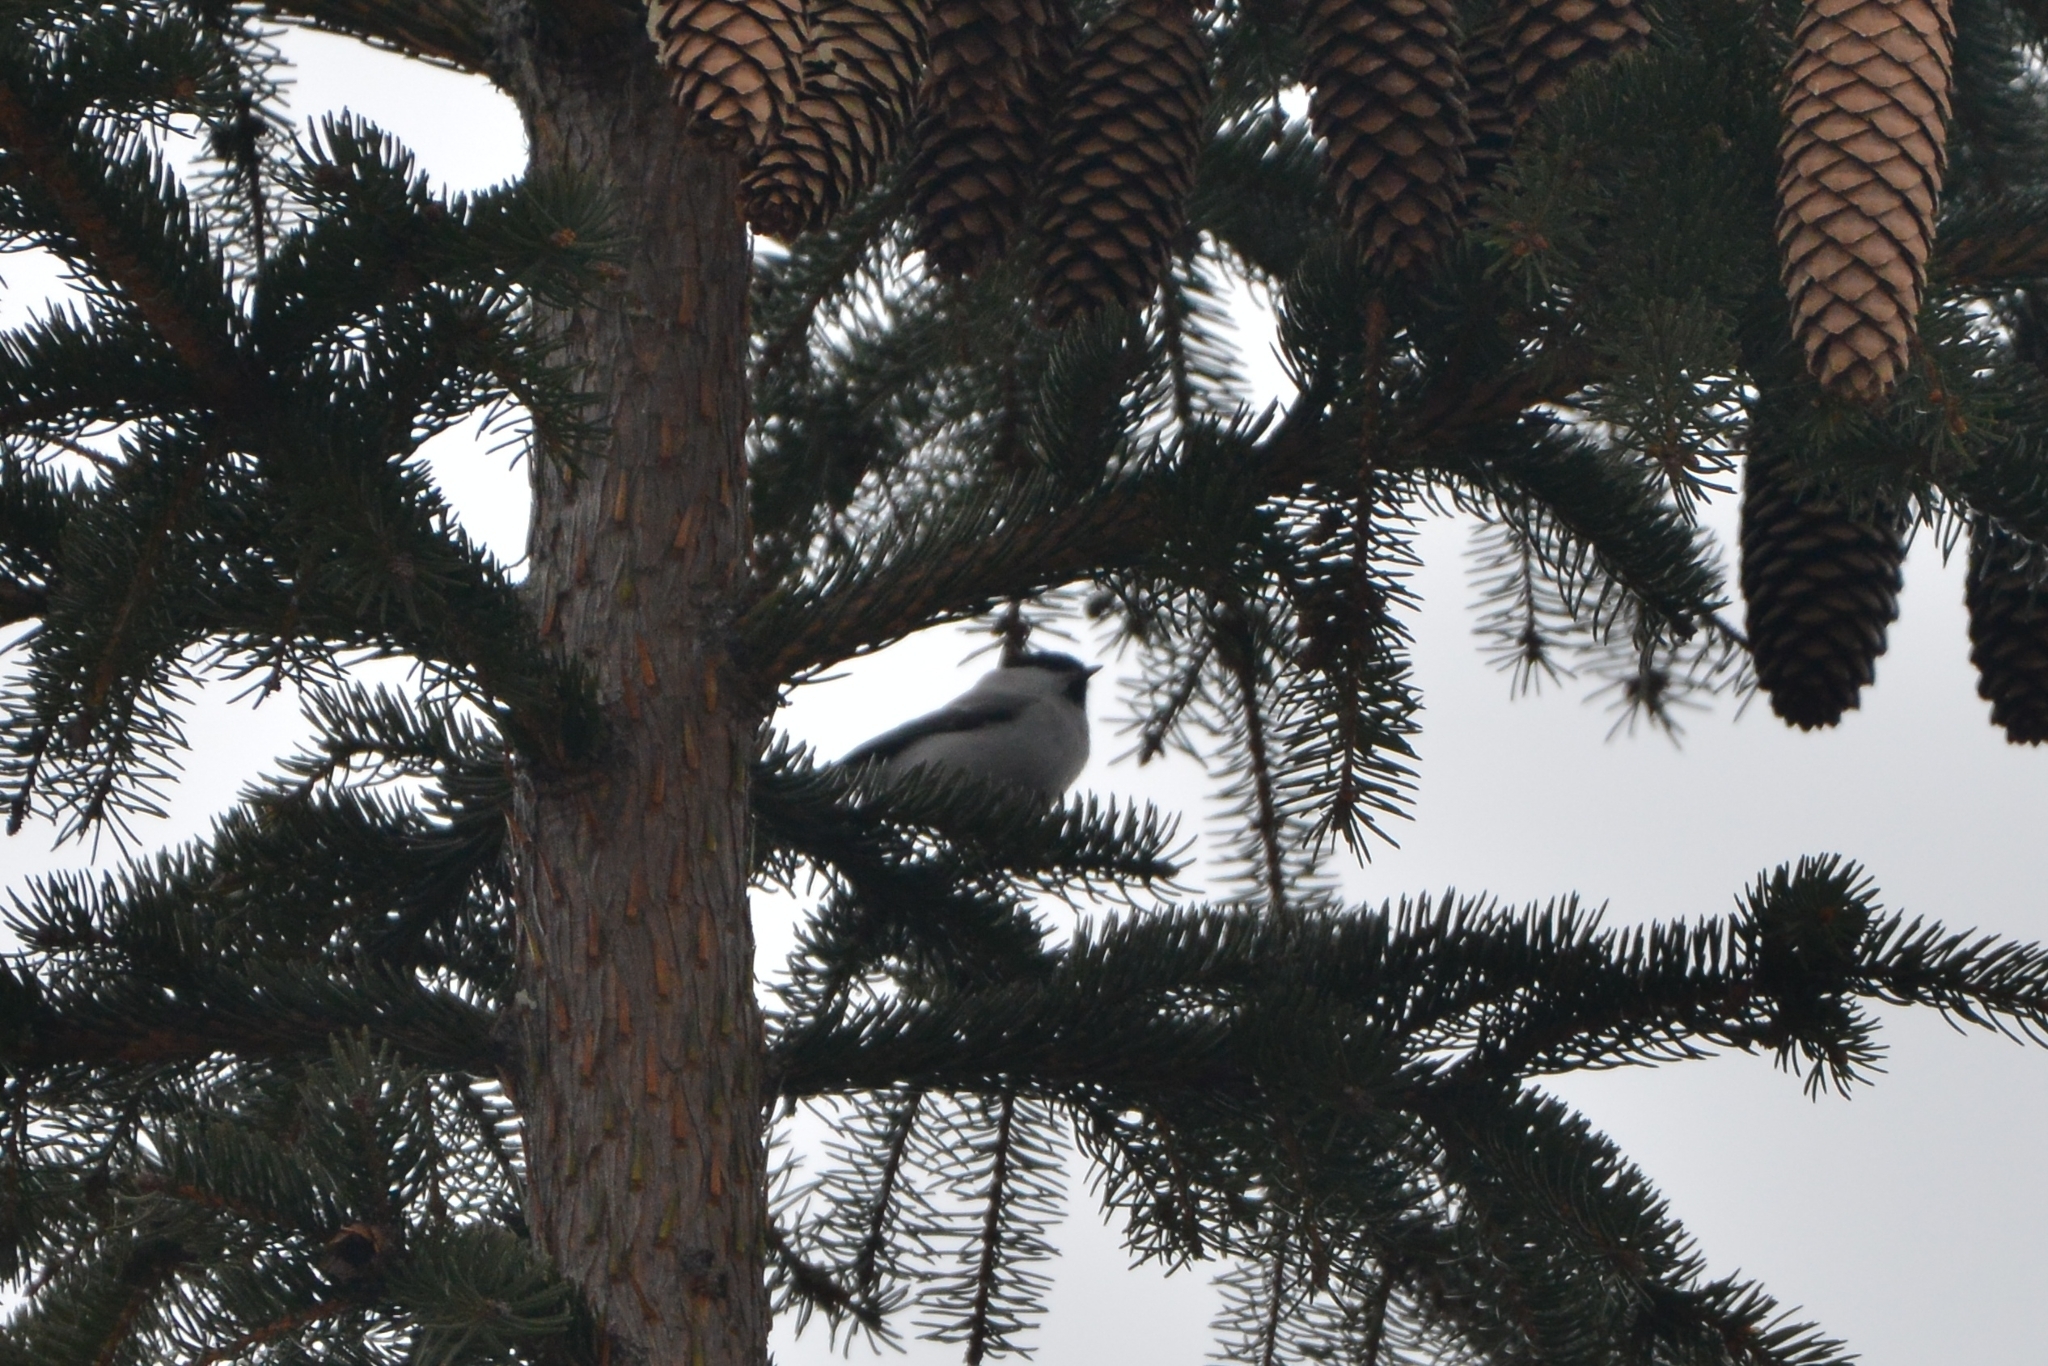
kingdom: Animalia
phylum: Chordata
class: Aves
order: Passeriformes
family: Paridae
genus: Poecile
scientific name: Poecile montanus
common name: Willow tit
